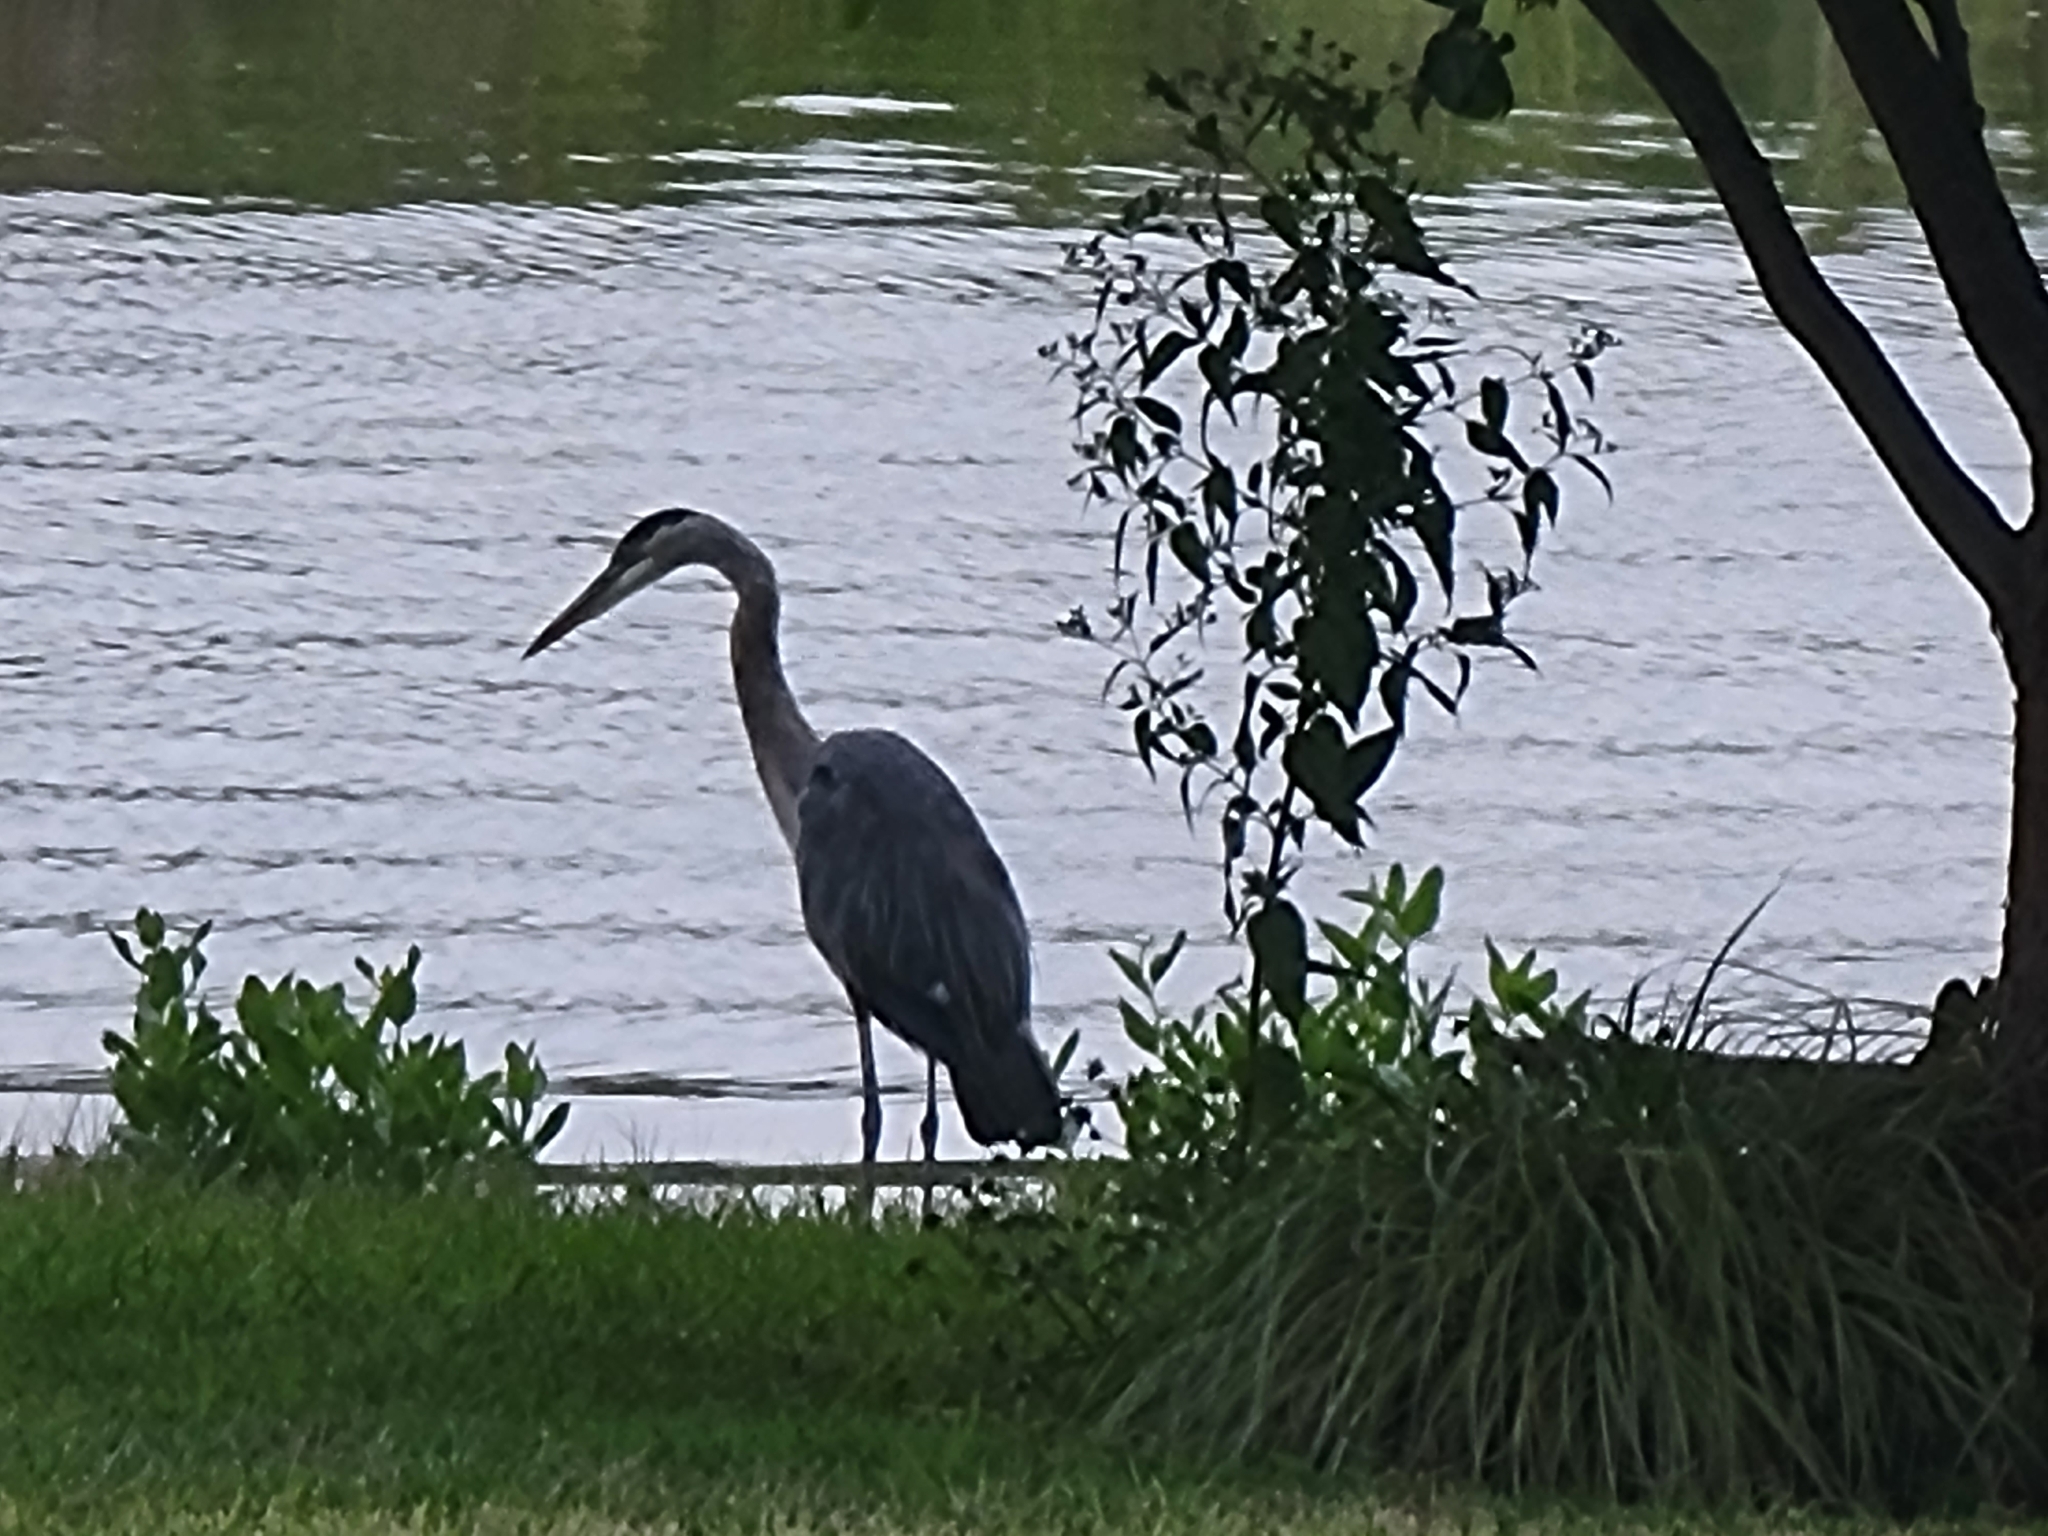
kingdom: Animalia
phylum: Chordata
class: Aves
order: Pelecaniformes
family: Ardeidae
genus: Ardea
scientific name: Ardea herodias
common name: Great blue heron
